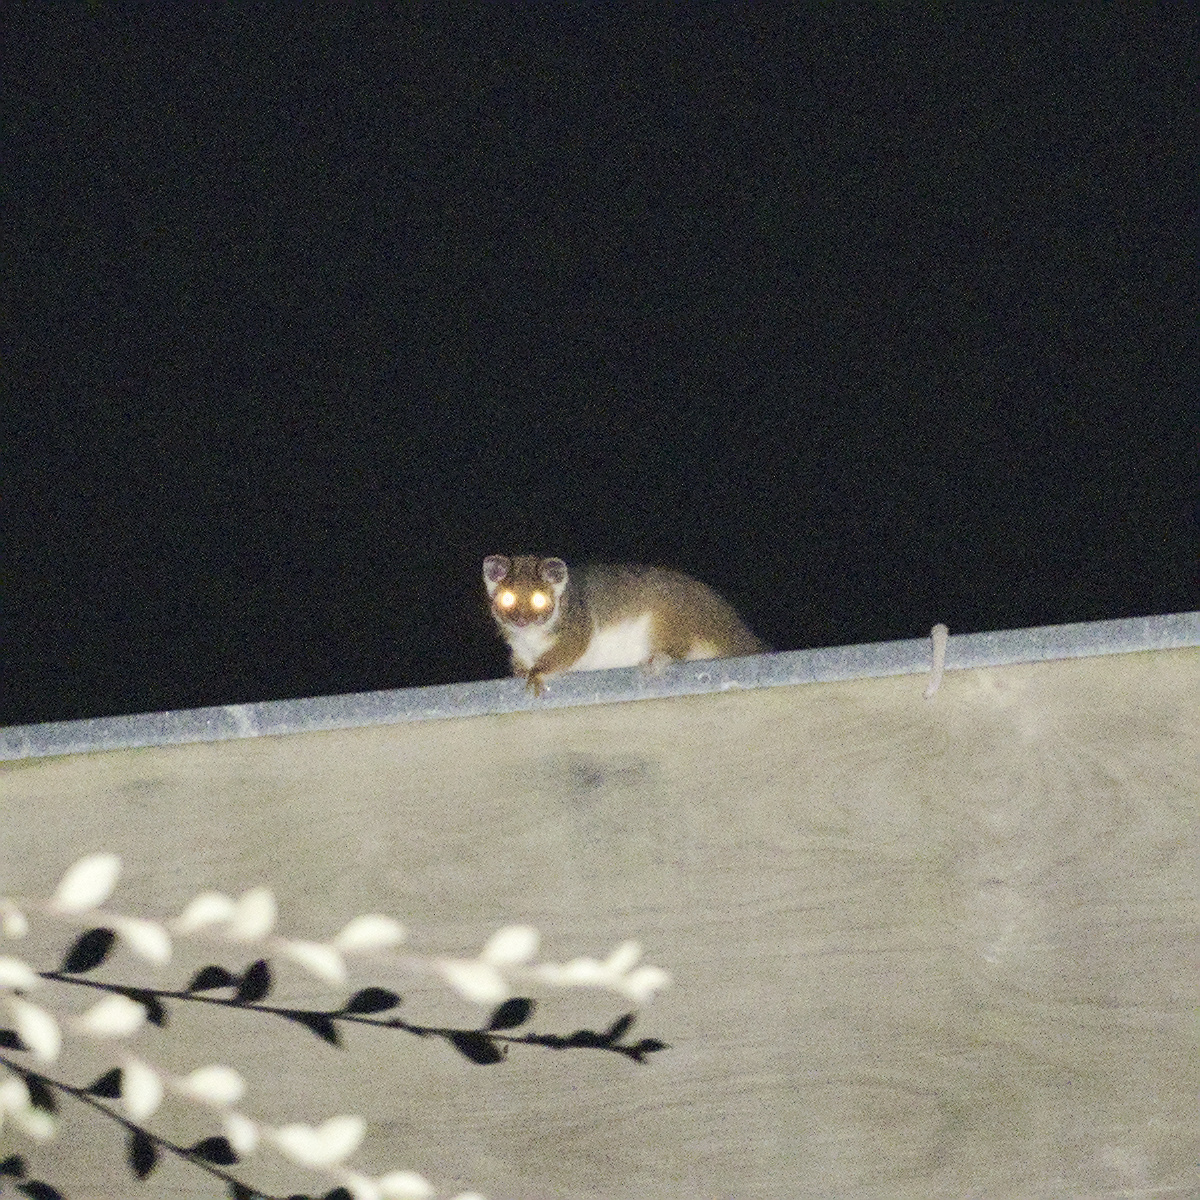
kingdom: Animalia
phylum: Chordata
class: Mammalia
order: Diprotodontia
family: Pseudocheiridae
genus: Pseudocheirus
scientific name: Pseudocheirus peregrinus
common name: Common ringtail possum
